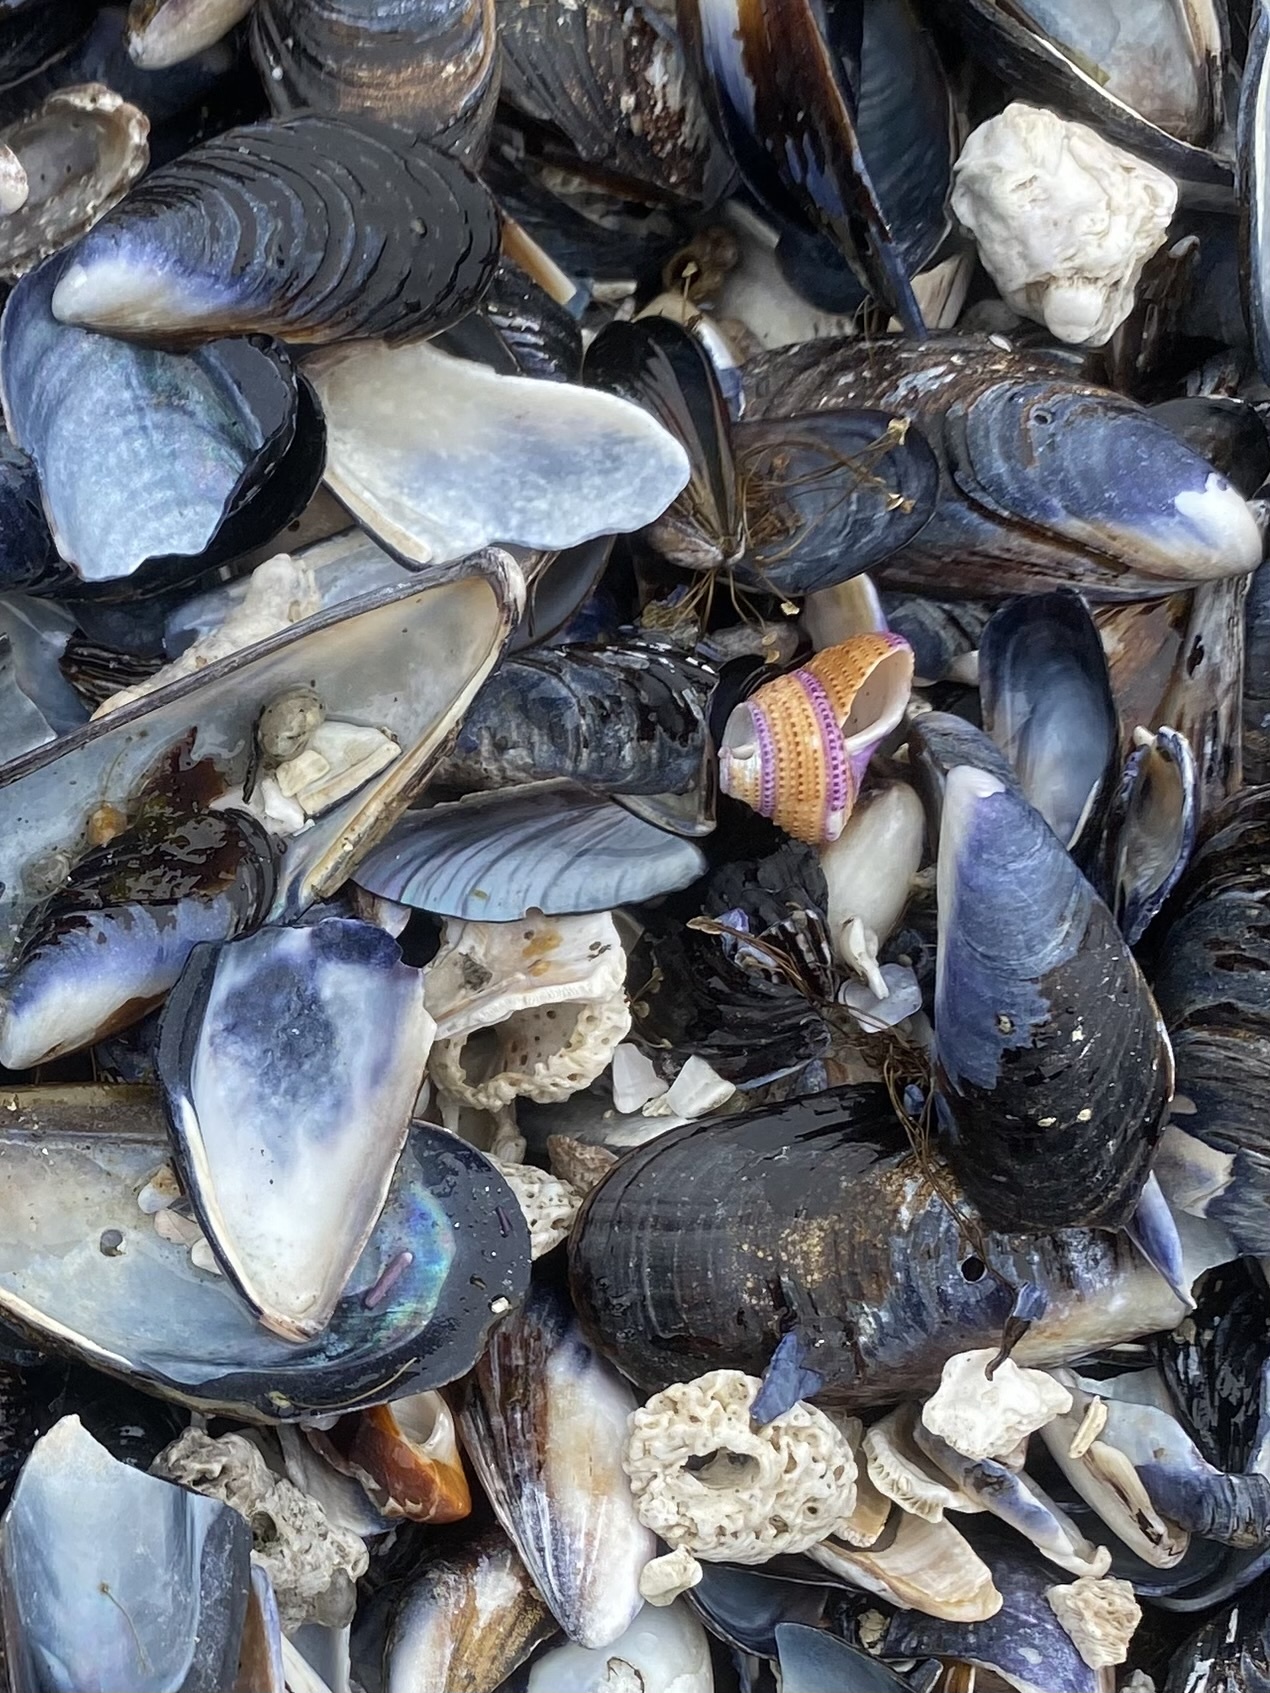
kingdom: Animalia
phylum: Mollusca
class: Gastropoda
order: Trochida
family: Calliostomatidae
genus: Calliostoma
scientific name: Calliostoma annulatum
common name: Blue-ring topsnail
